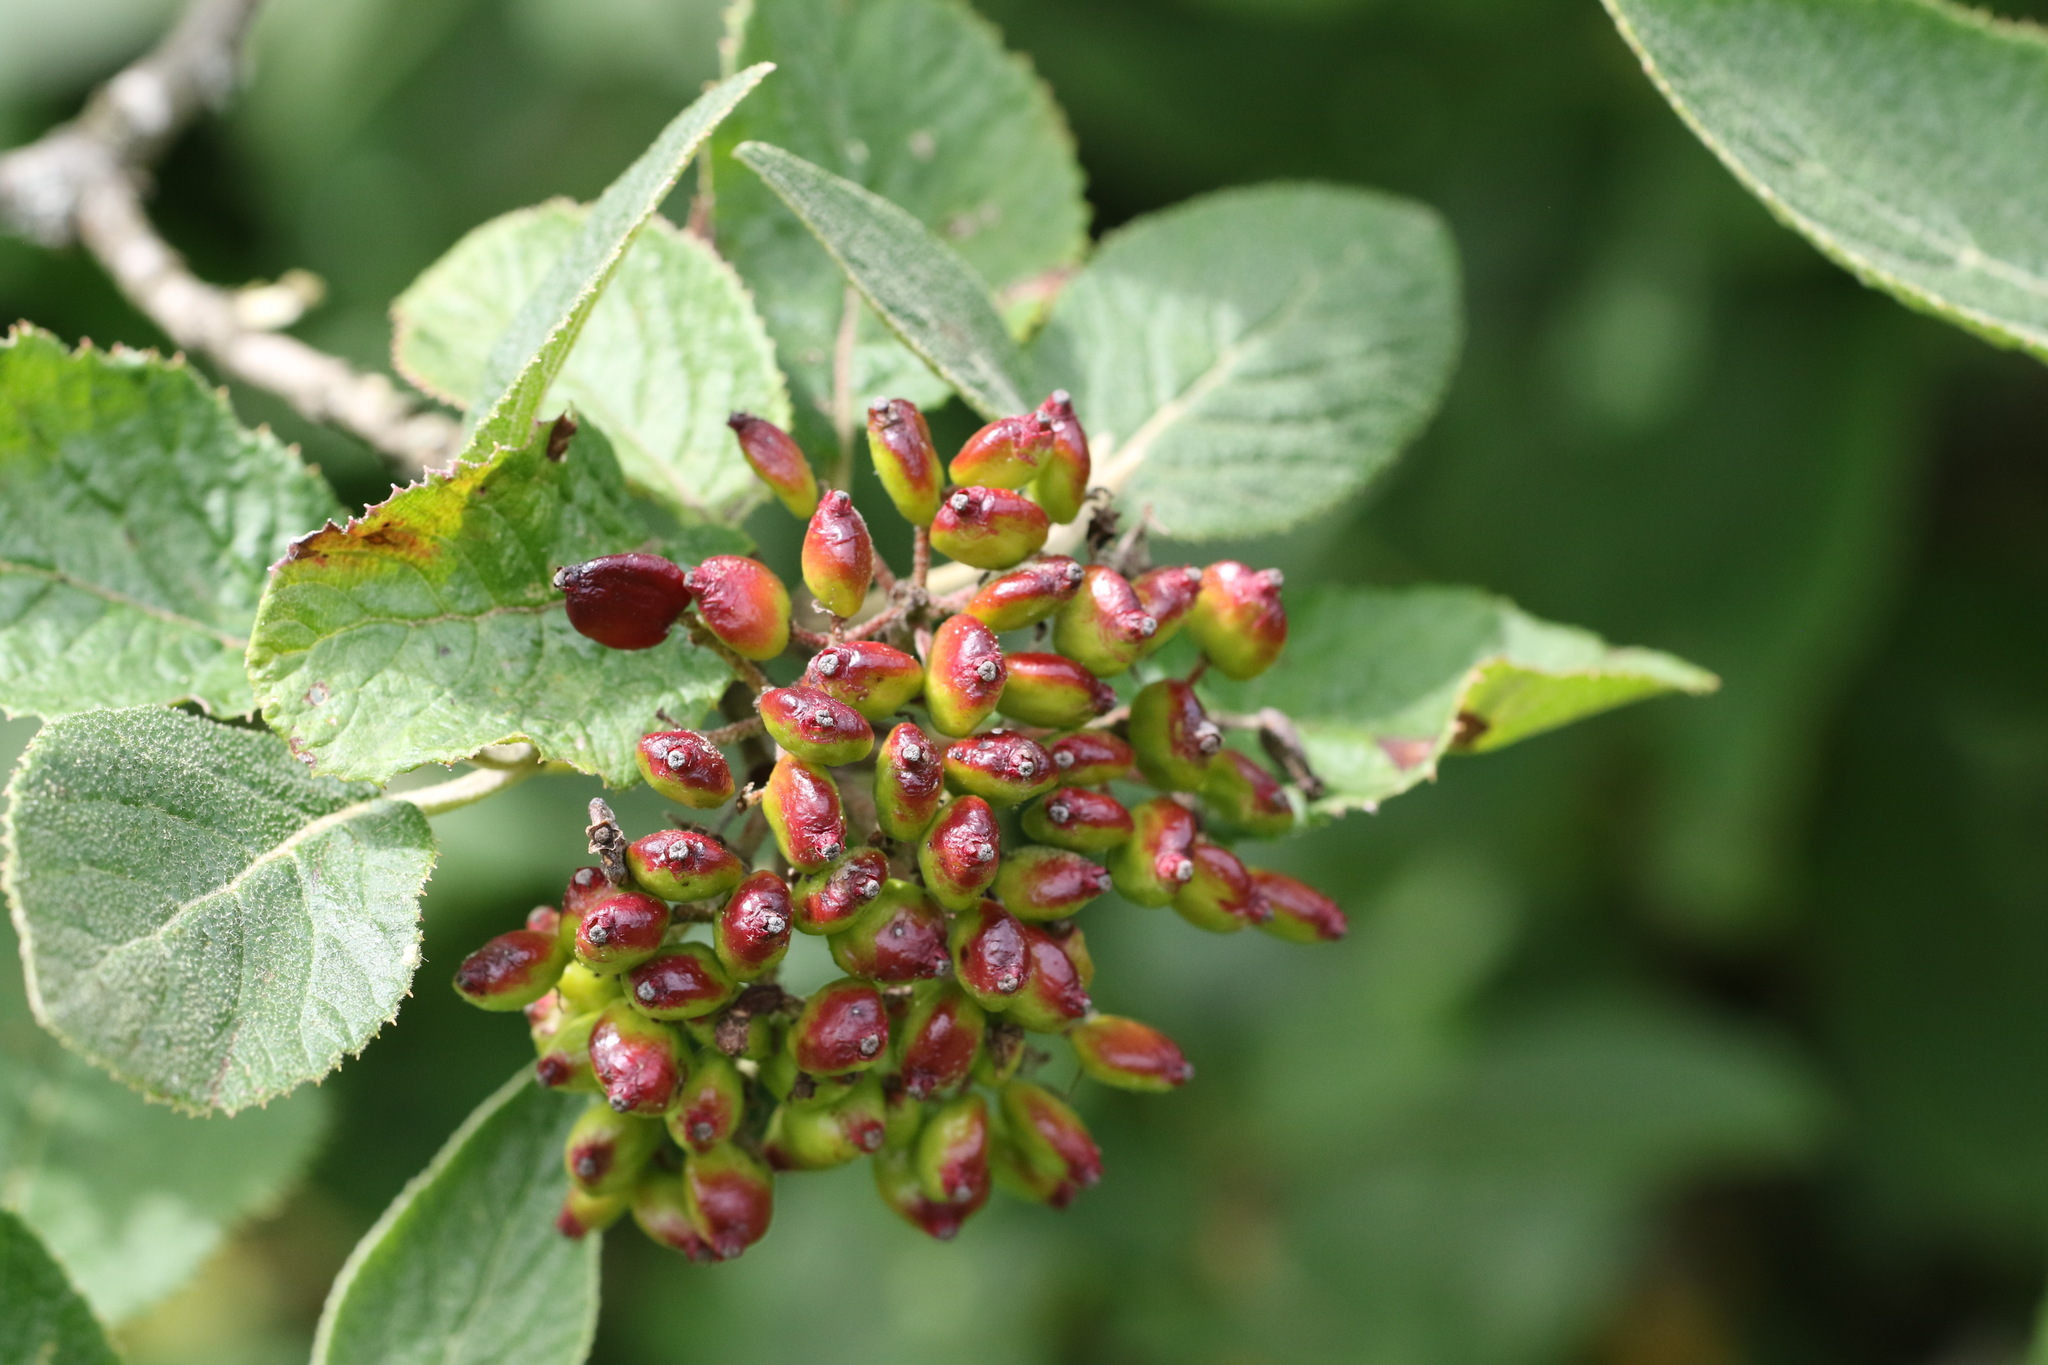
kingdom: Plantae
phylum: Tracheophyta
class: Magnoliopsida
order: Dipsacales
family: Viburnaceae
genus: Viburnum
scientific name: Viburnum lantana
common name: Wayfaring tree
